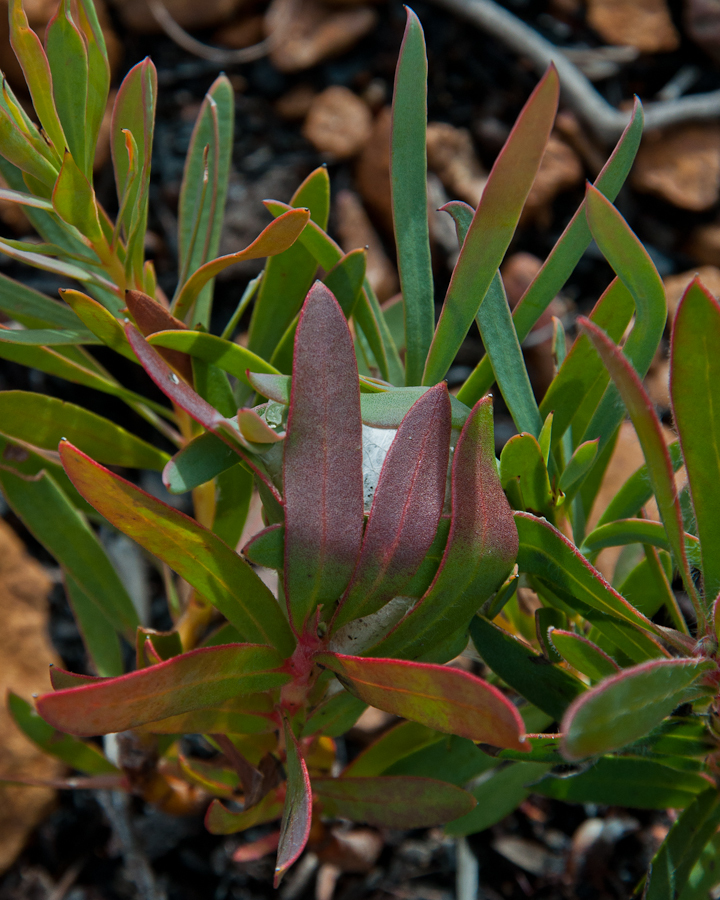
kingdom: Animalia
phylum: Arthropoda
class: Arachnida
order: Araneae
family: Sparassidae
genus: Palystes
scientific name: Palystes kreutzmanni
